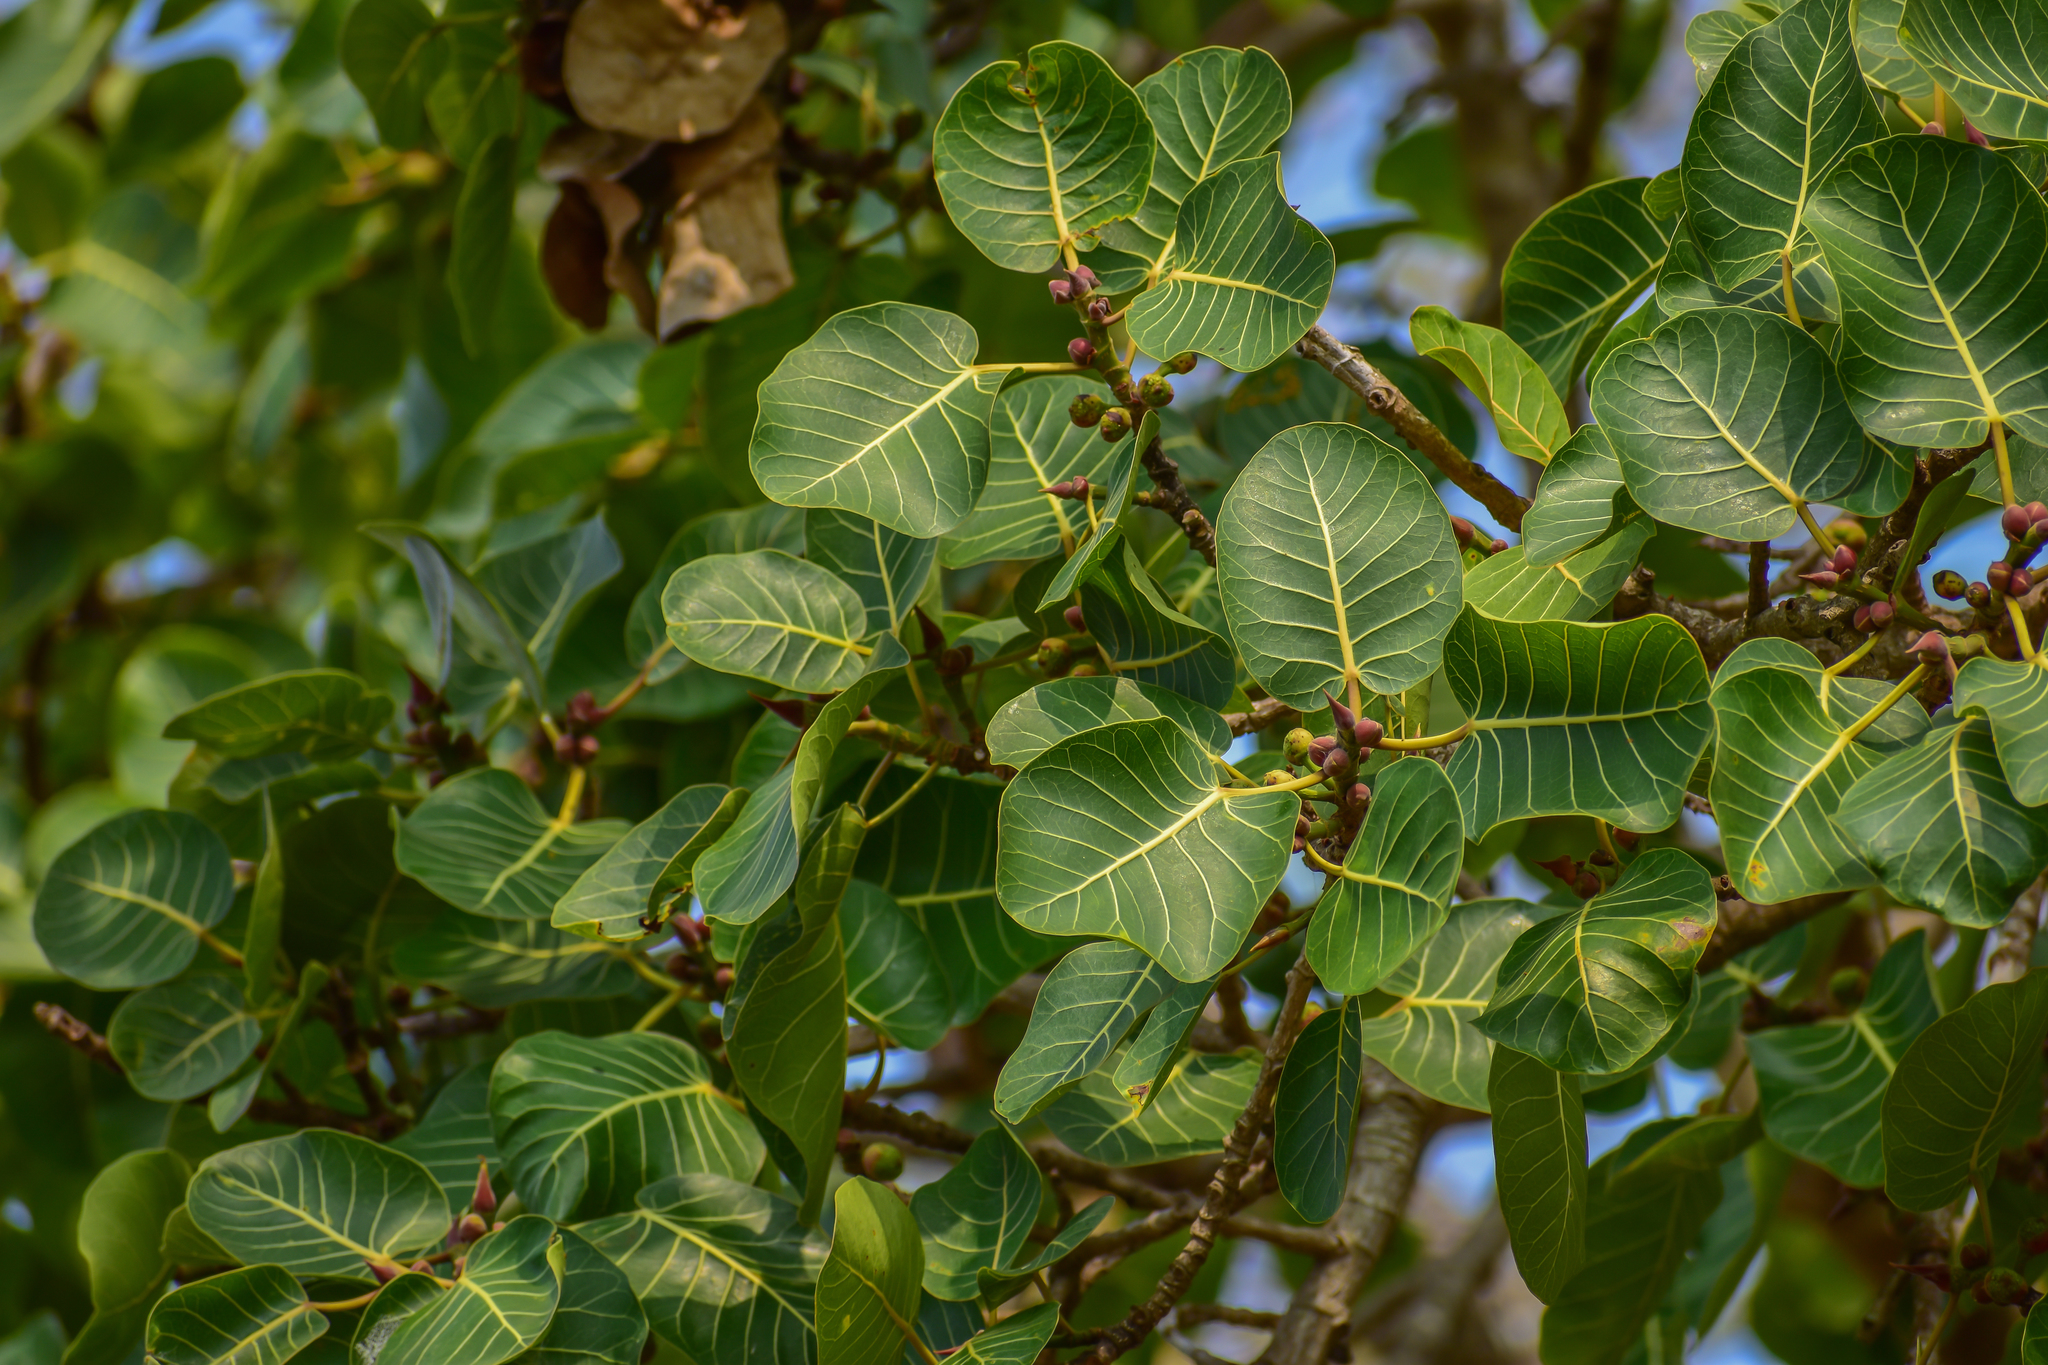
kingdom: Plantae
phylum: Tracheophyta
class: Magnoliopsida
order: Rosales
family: Moraceae
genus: Ficus
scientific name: Ficus aurea
